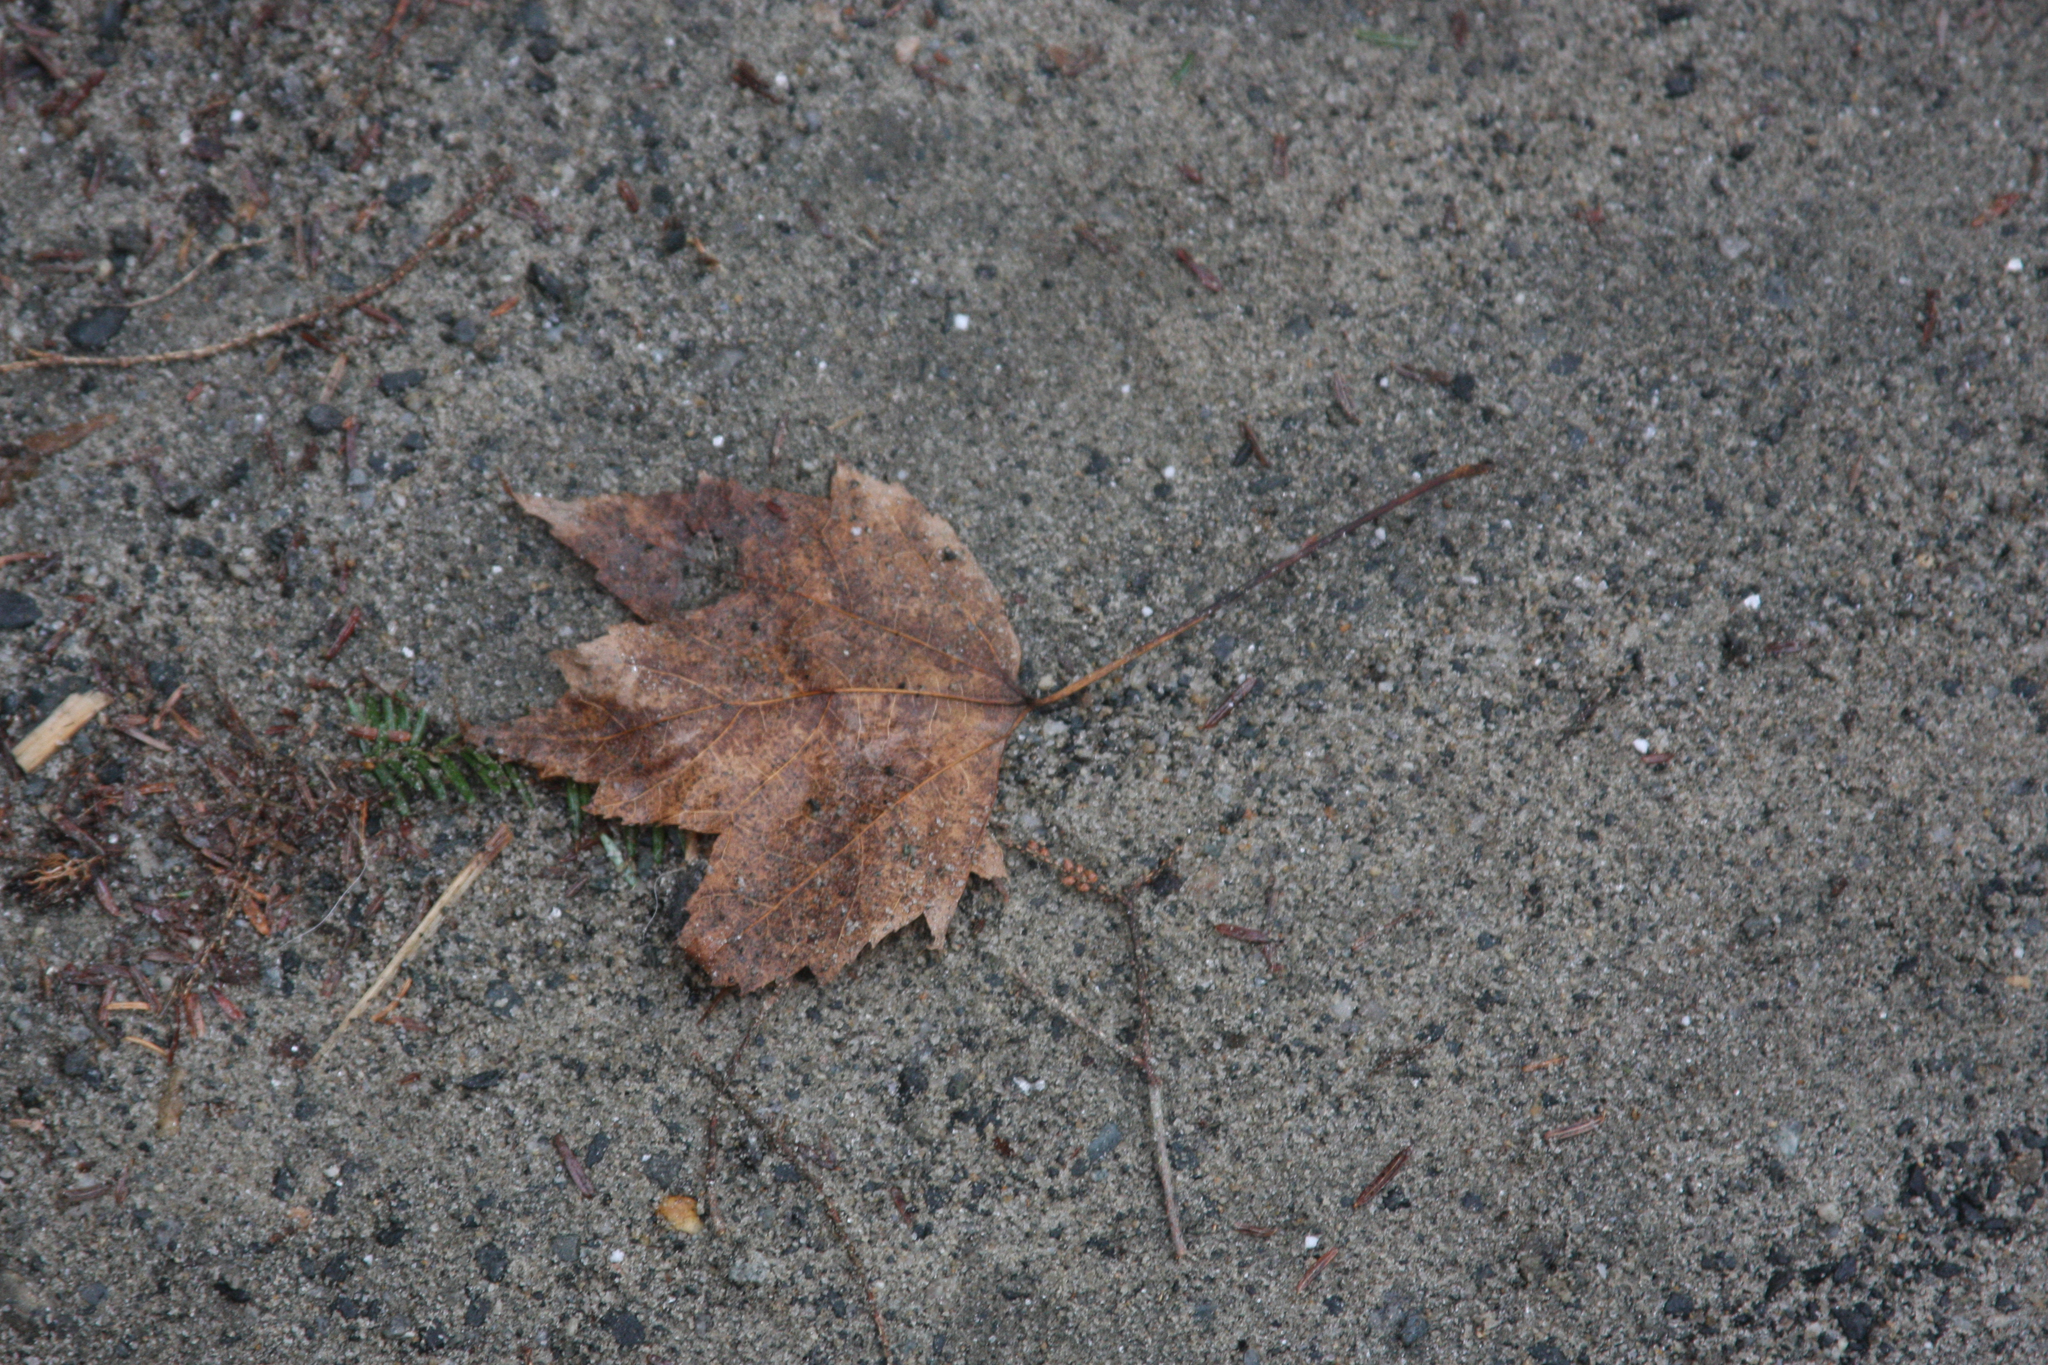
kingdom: Plantae
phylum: Tracheophyta
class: Magnoliopsida
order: Sapindales
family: Sapindaceae
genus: Acer
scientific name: Acer rubrum
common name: Red maple
